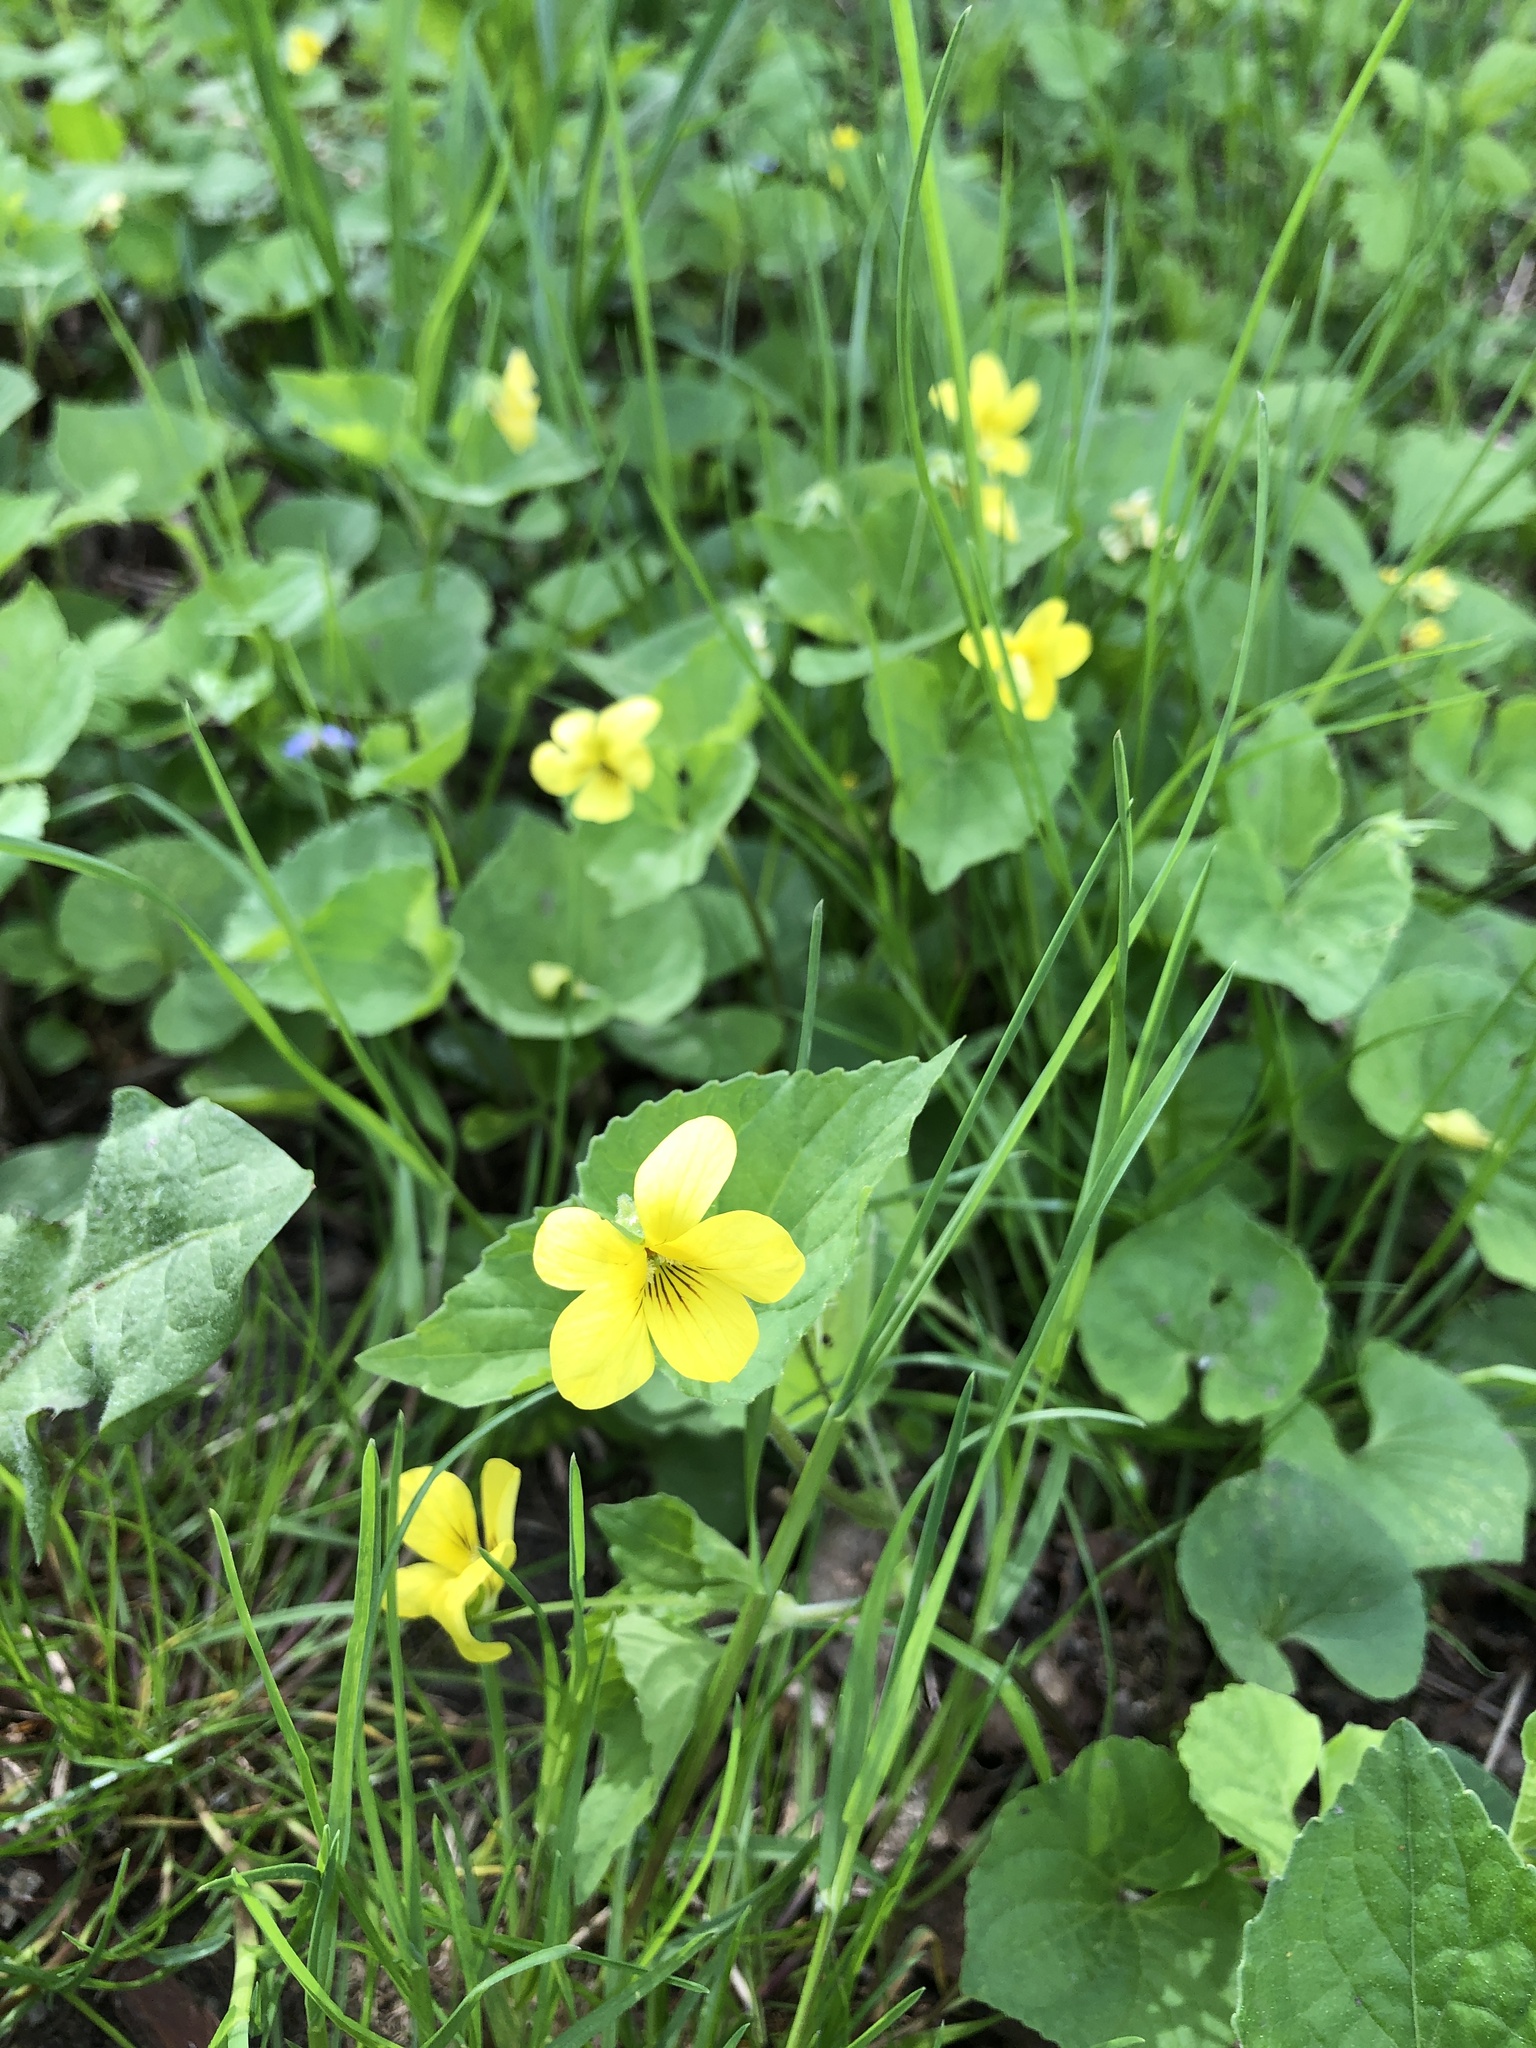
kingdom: Plantae
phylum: Tracheophyta
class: Magnoliopsida
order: Malpighiales
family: Violaceae
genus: Viola
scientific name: Viola eriocarpa
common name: Smooth yellow violet
